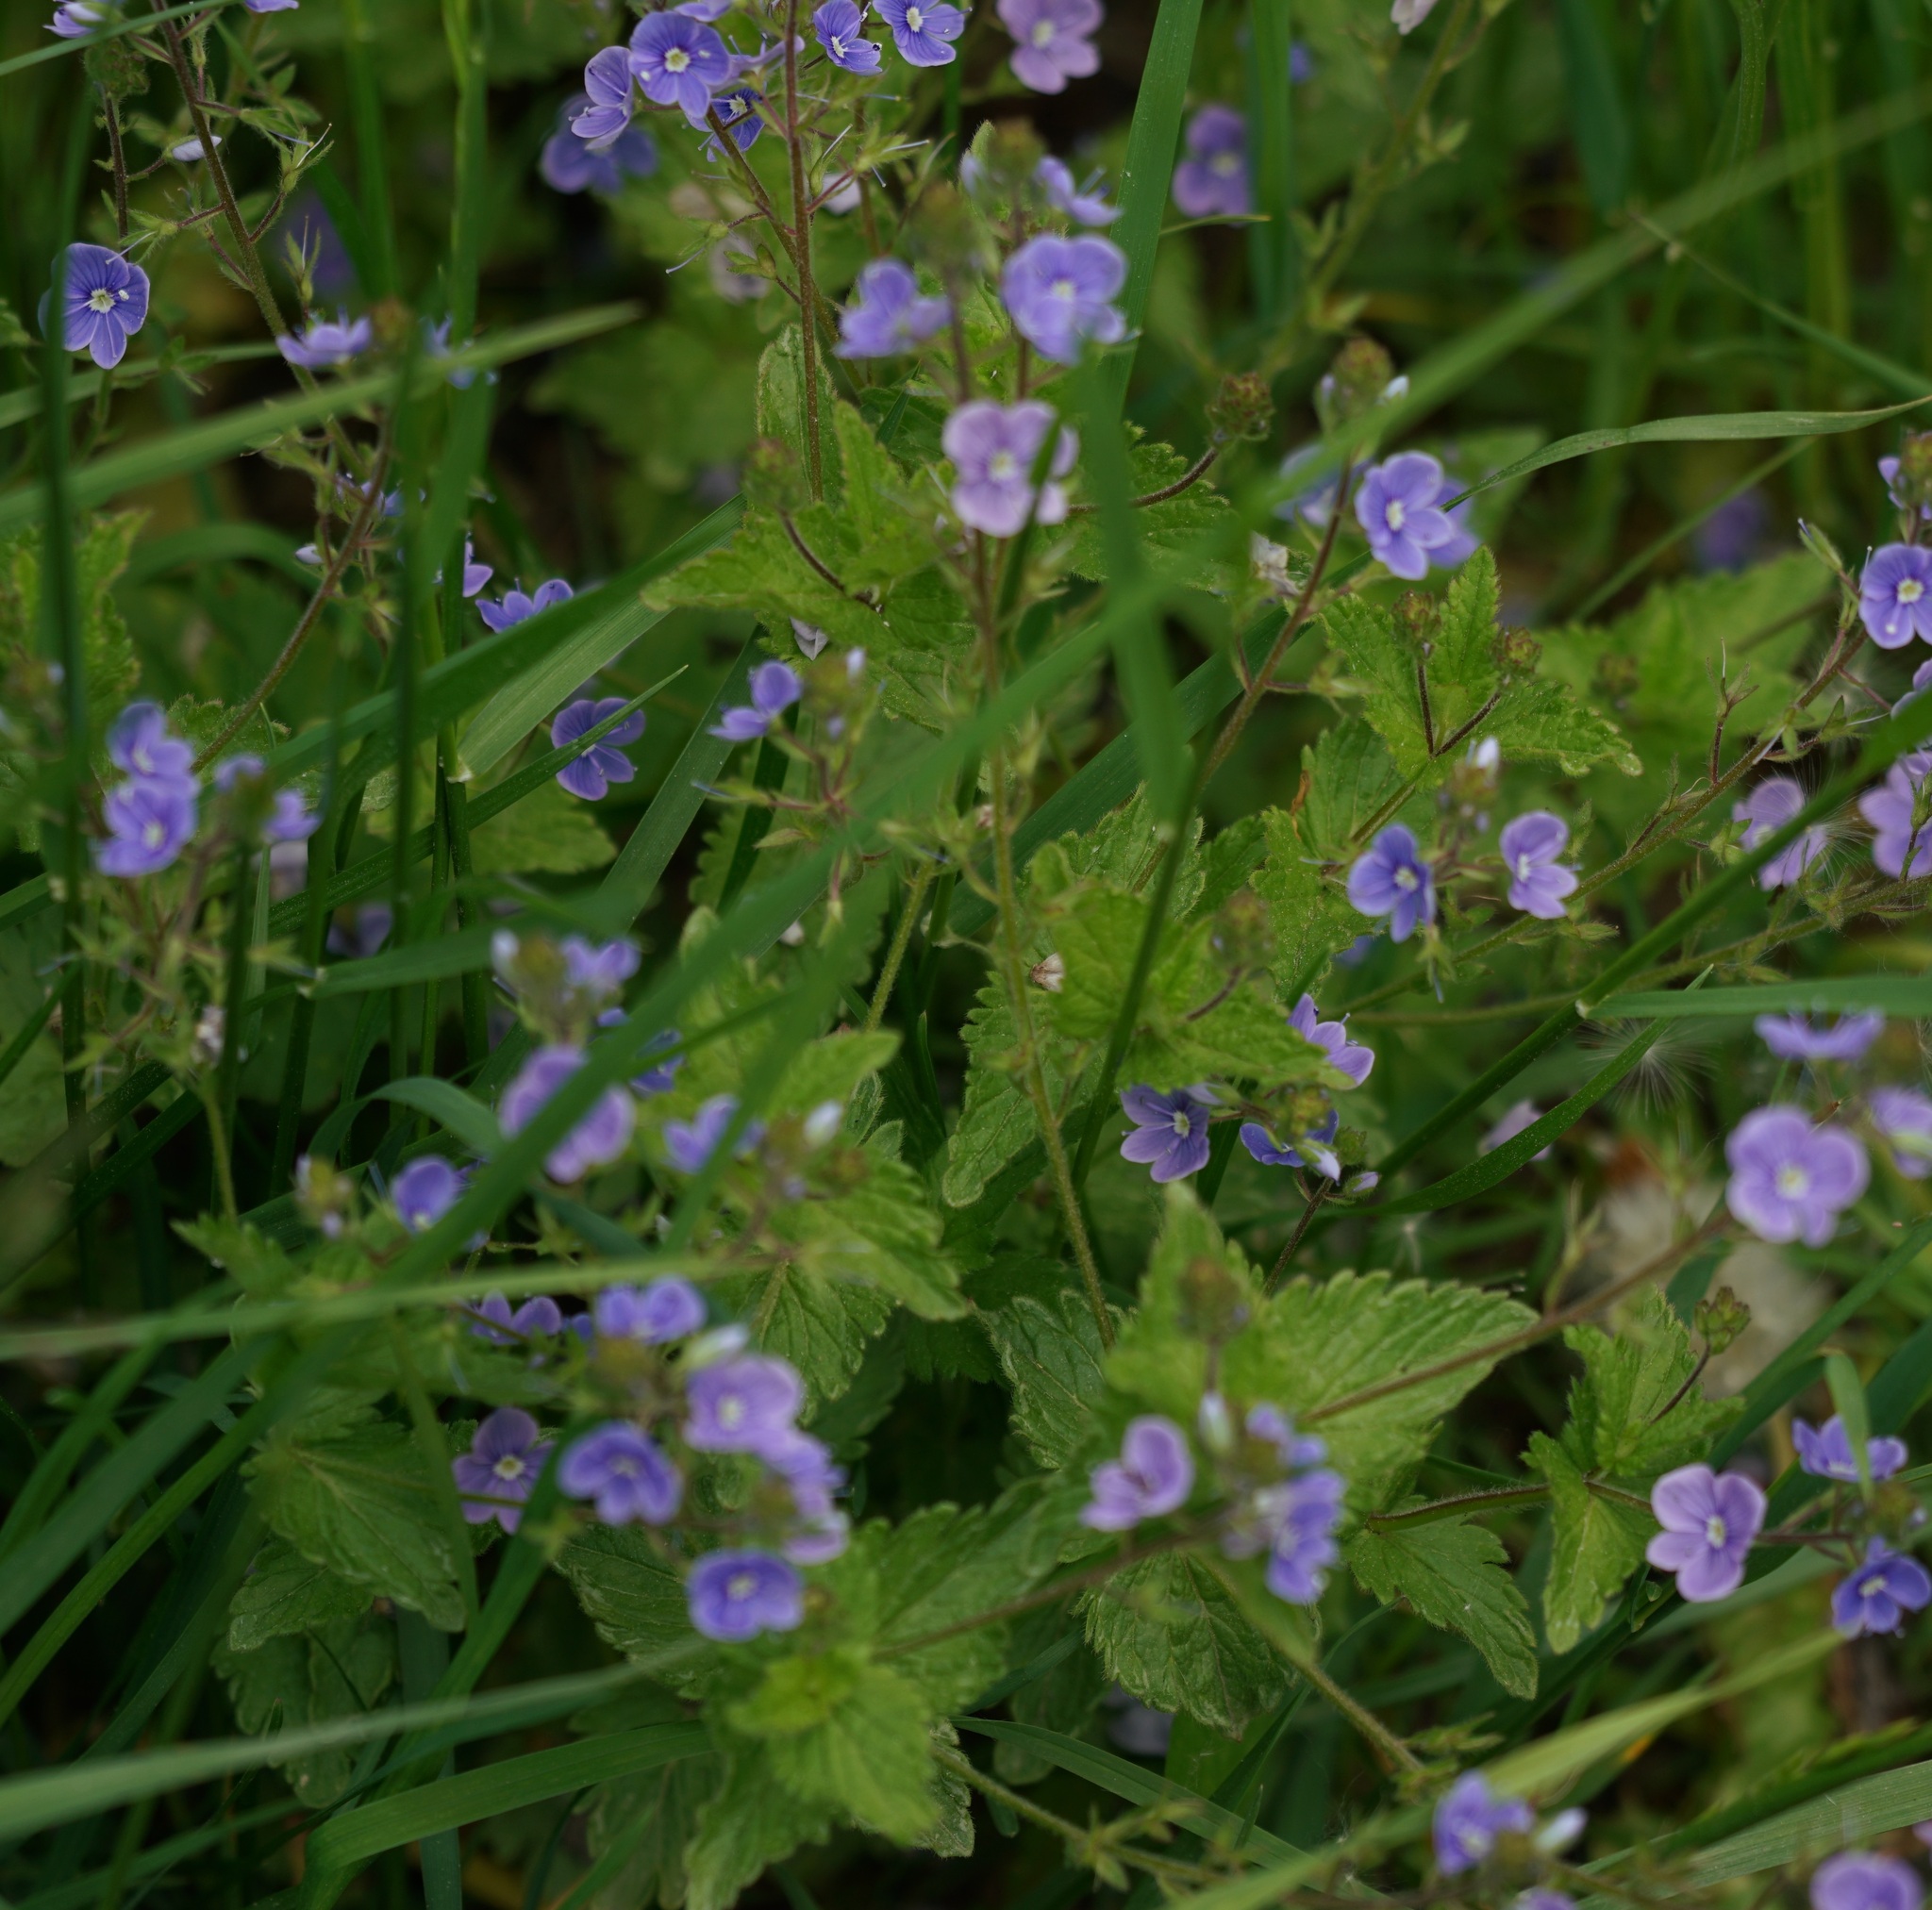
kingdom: Plantae
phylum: Tracheophyta
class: Magnoliopsida
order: Lamiales
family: Plantaginaceae
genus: Veronica
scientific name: Veronica chamaedrys
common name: Germander speedwell
